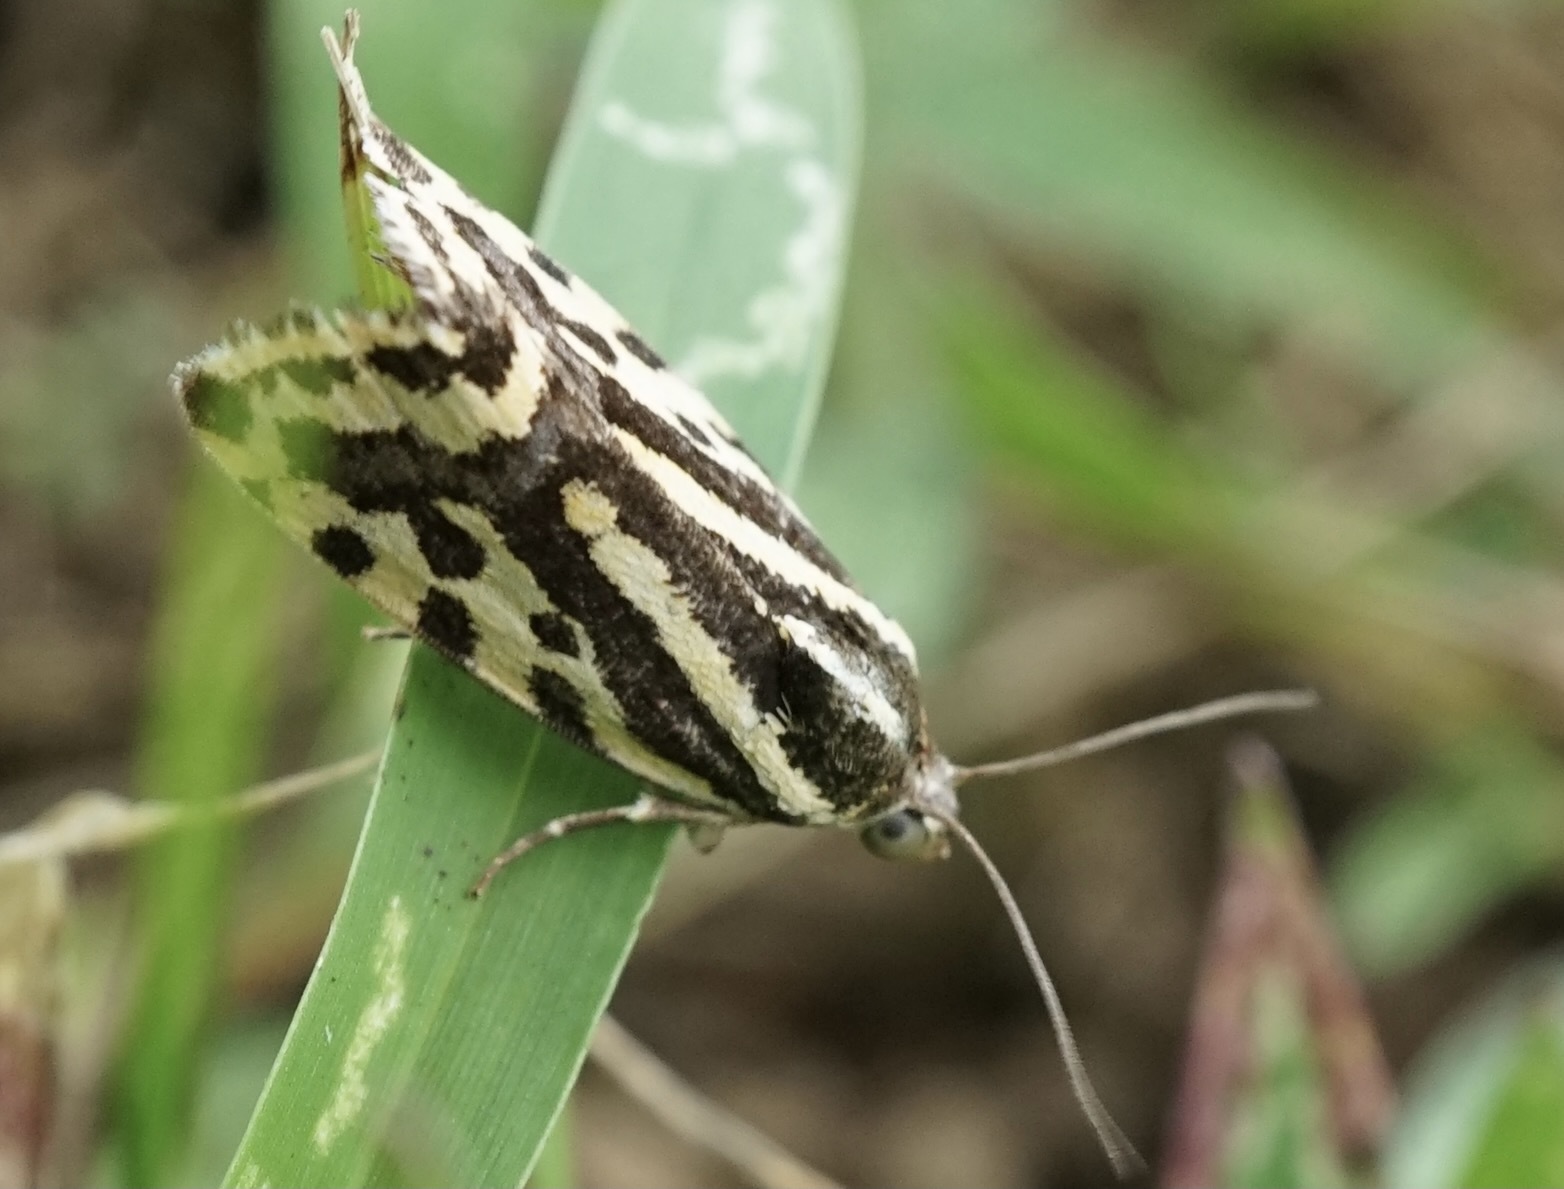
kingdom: Animalia
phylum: Arthropoda
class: Insecta
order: Lepidoptera
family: Noctuidae
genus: Acontia
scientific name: Acontia trabealis
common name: Spotted sulphur
